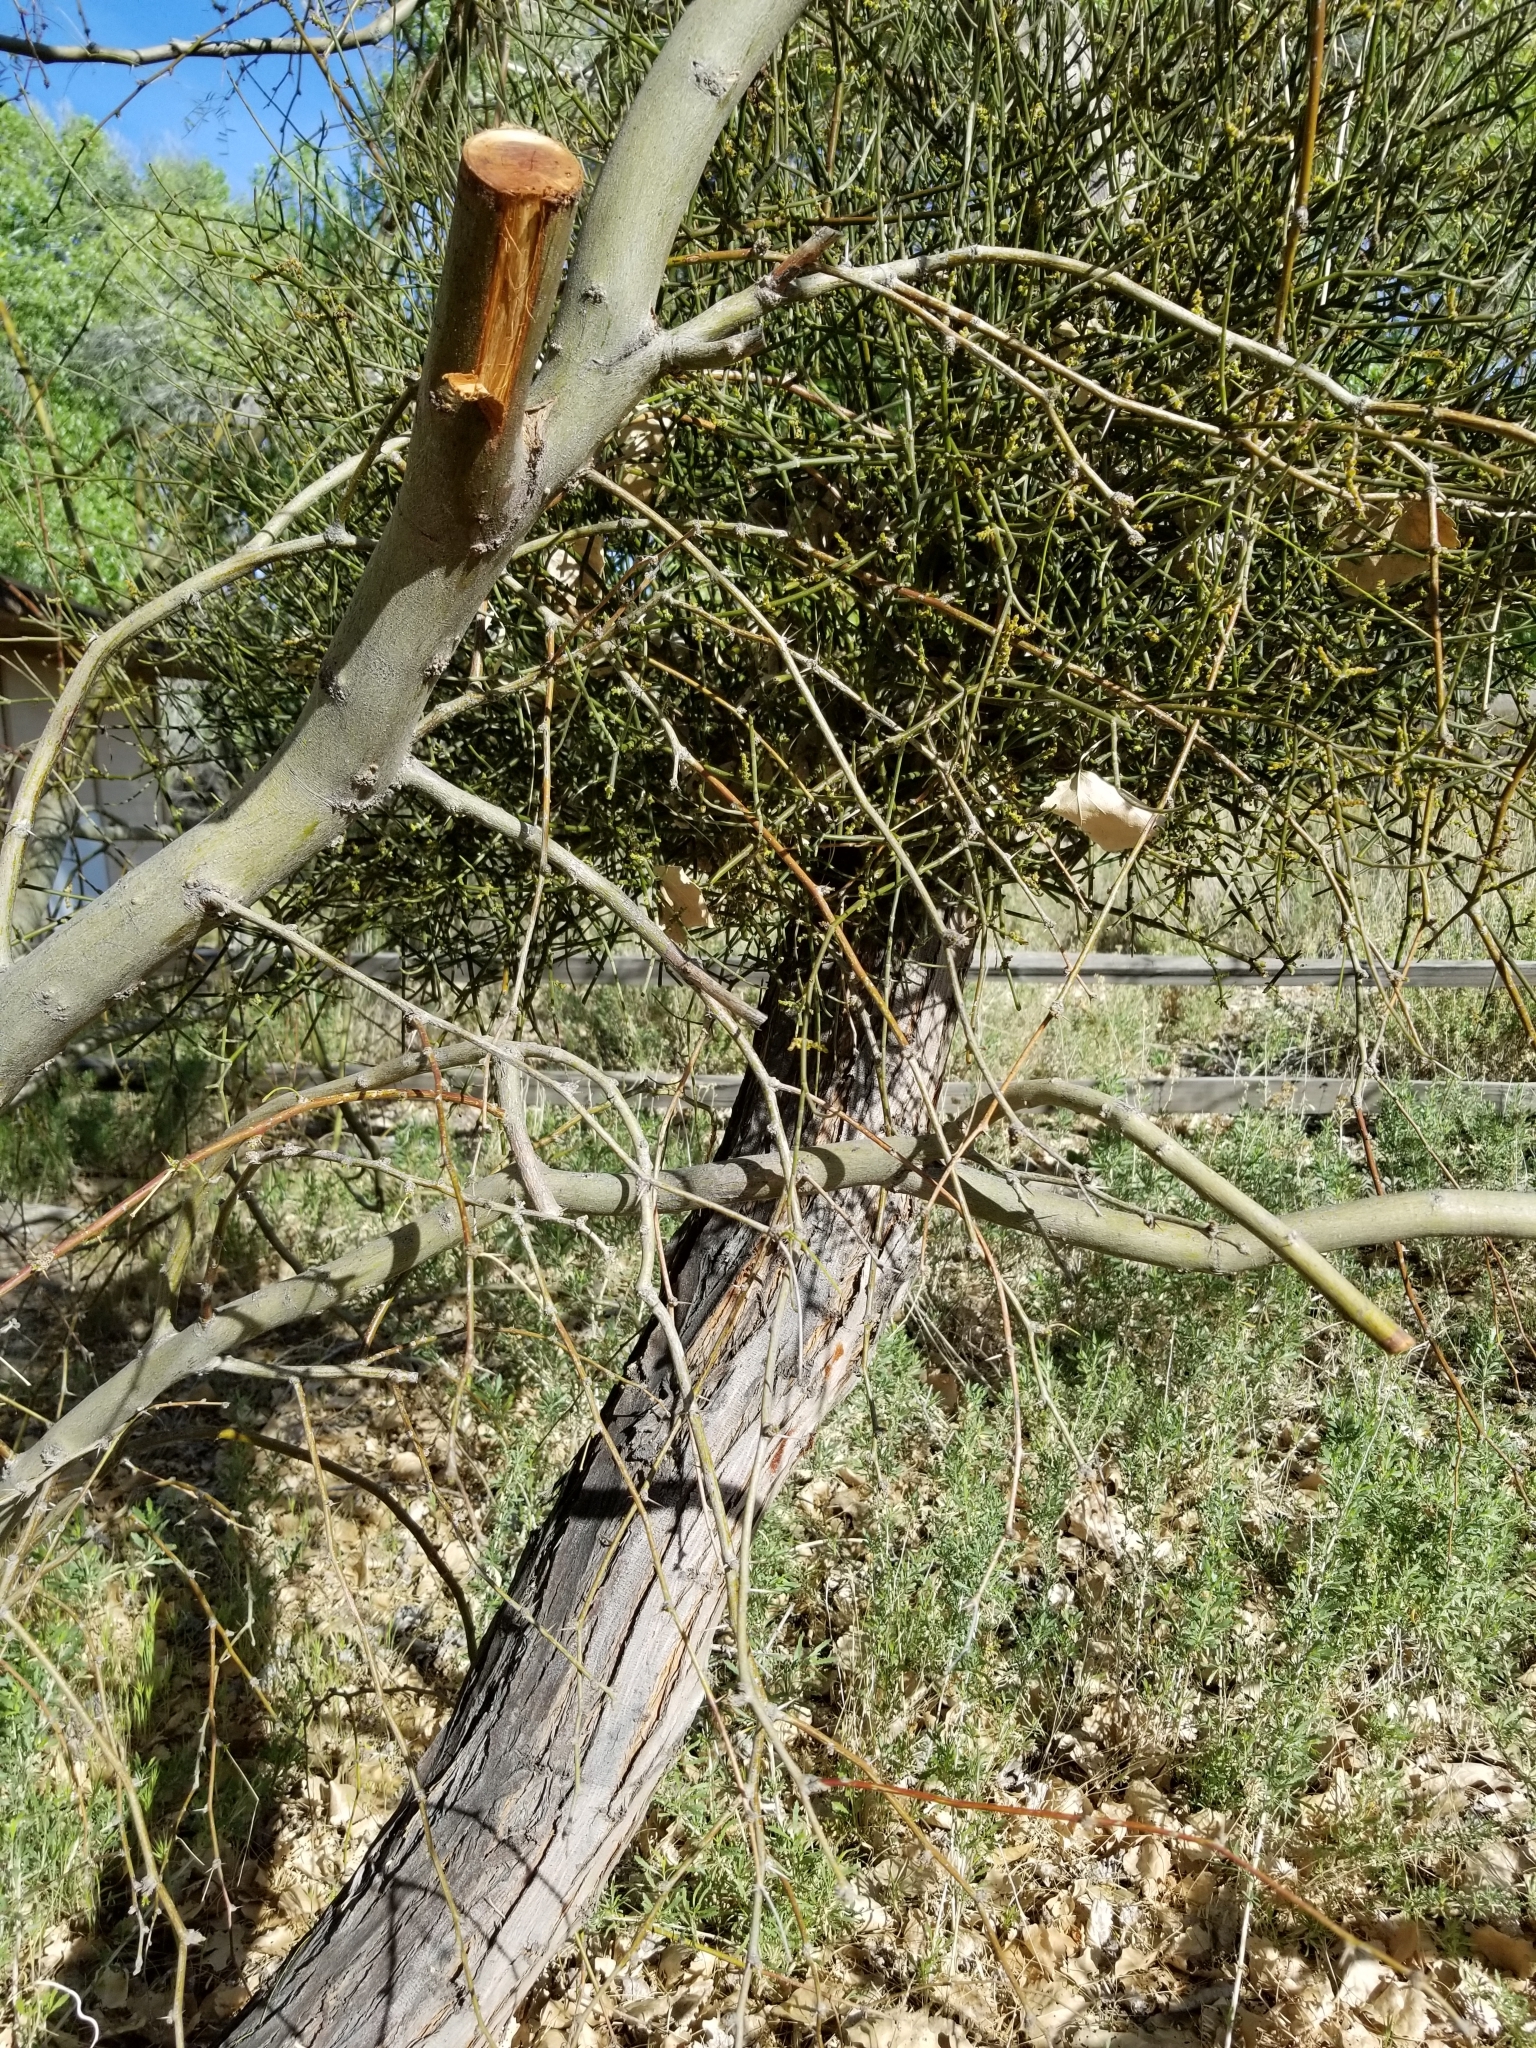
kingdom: Plantae
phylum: Tracheophyta
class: Magnoliopsida
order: Santalales
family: Viscaceae
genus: Phoradendron
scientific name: Phoradendron californicum
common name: Acacia mistletoe
